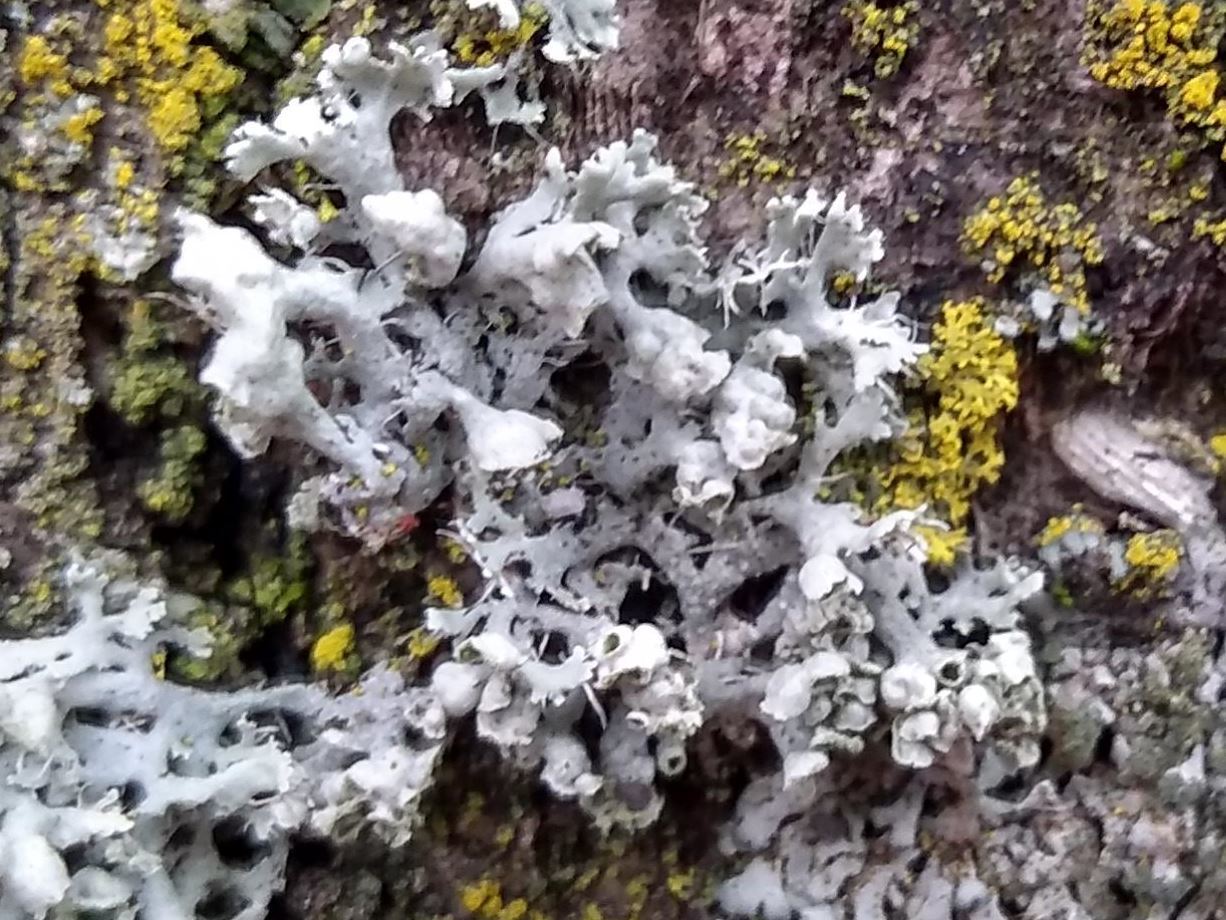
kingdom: Fungi
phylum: Ascomycota
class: Lecanoromycetes
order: Caliciales
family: Physciaceae
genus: Physcia
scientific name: Physcia adscendens
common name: Hooded rosette lichen
